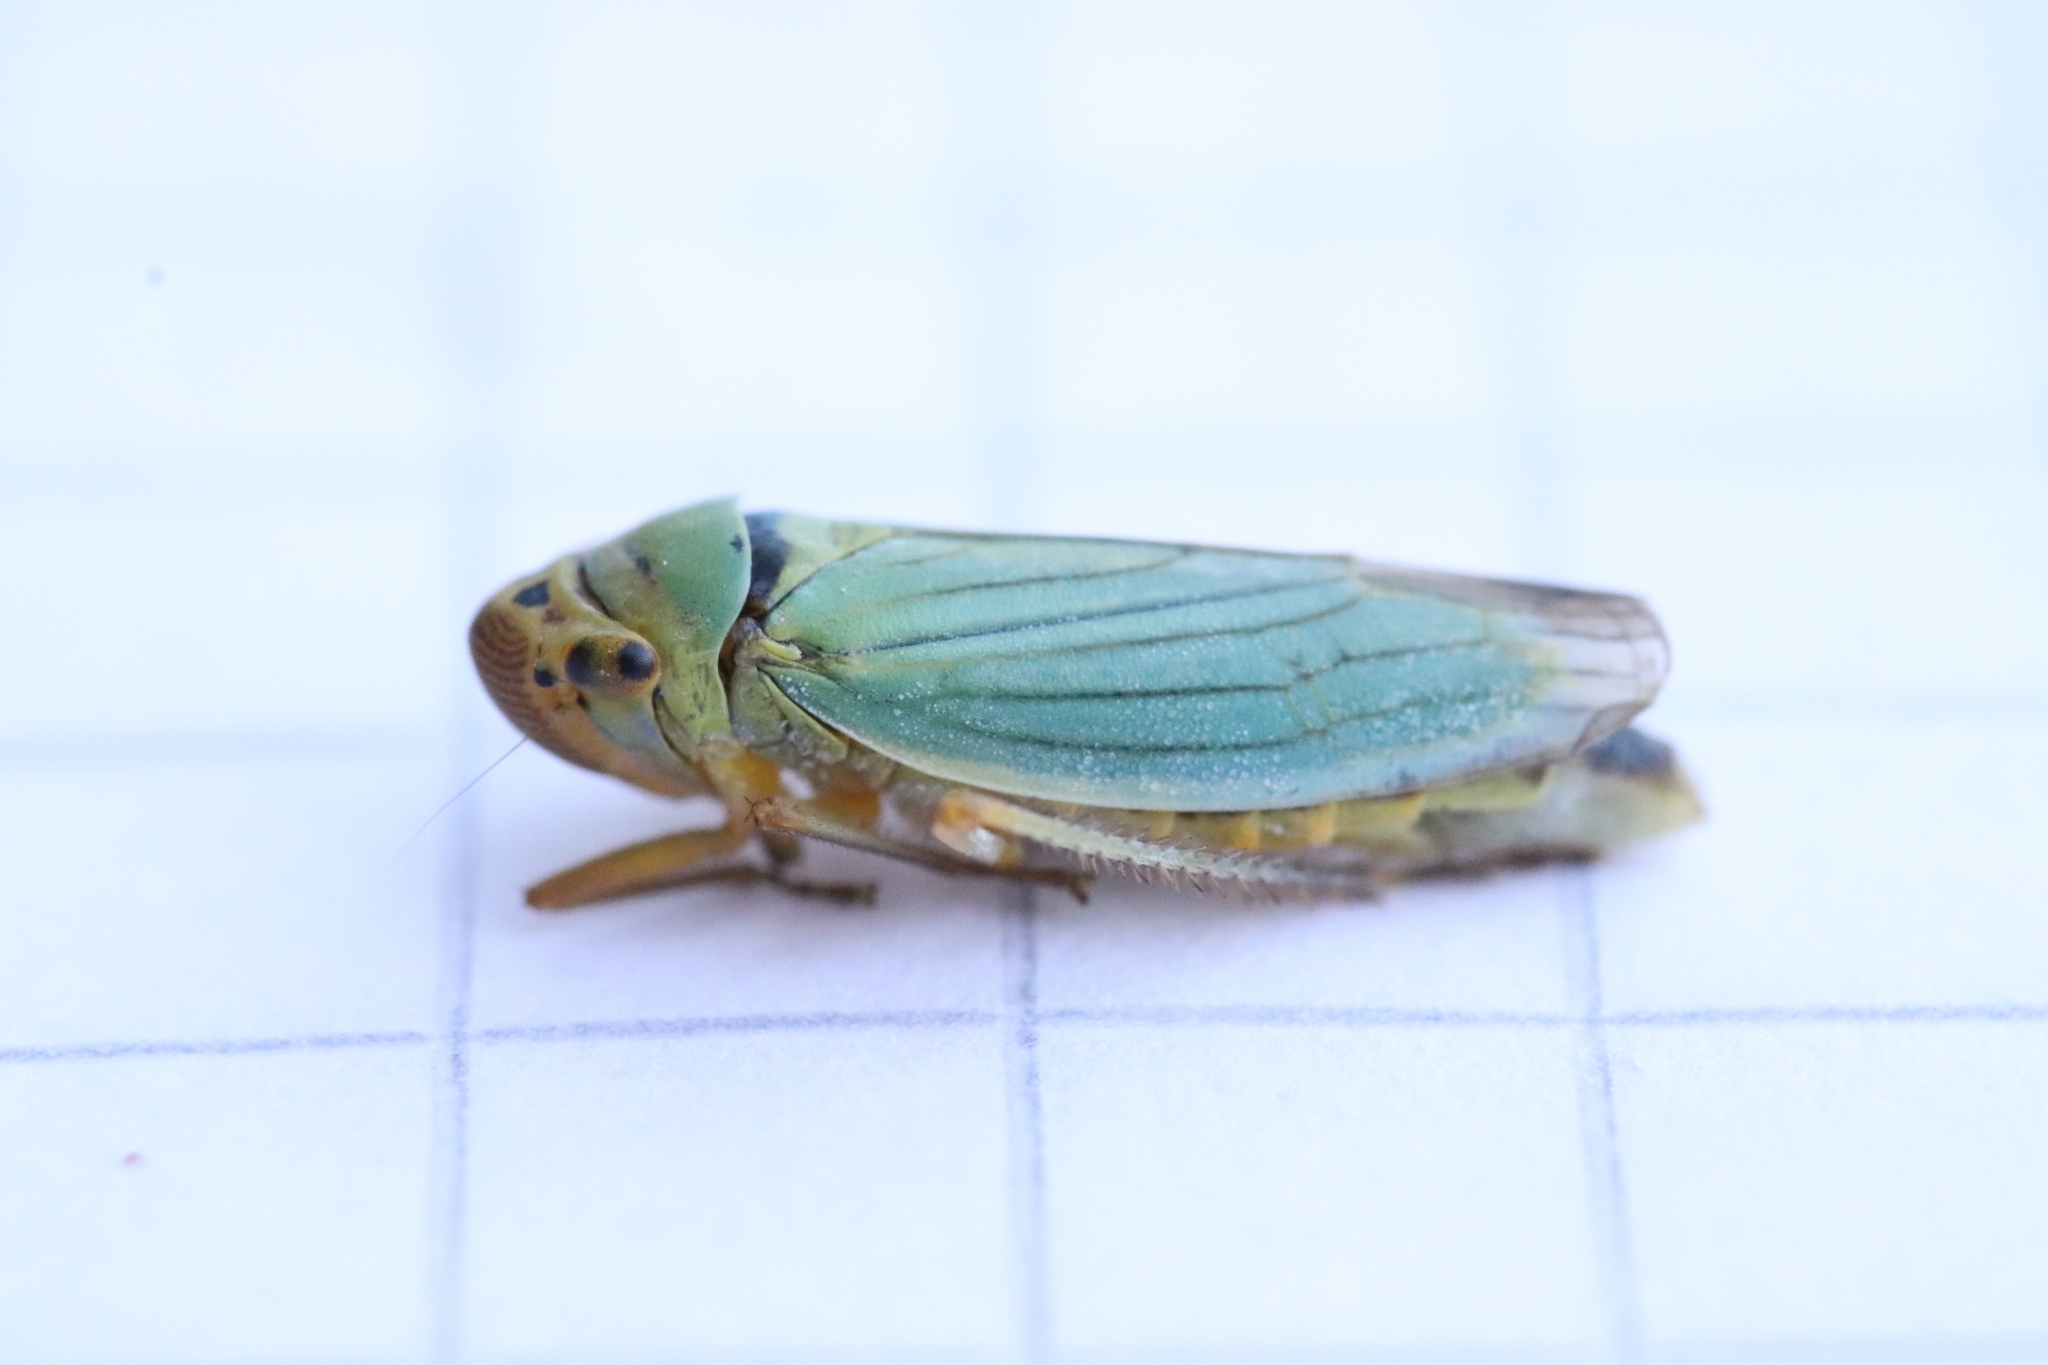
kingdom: Animalia
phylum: Arthropoda
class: Insecta
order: Hemiptera
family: Cicadellidae
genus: Cicadella
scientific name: Cicadella viridis
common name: Leafhopper
